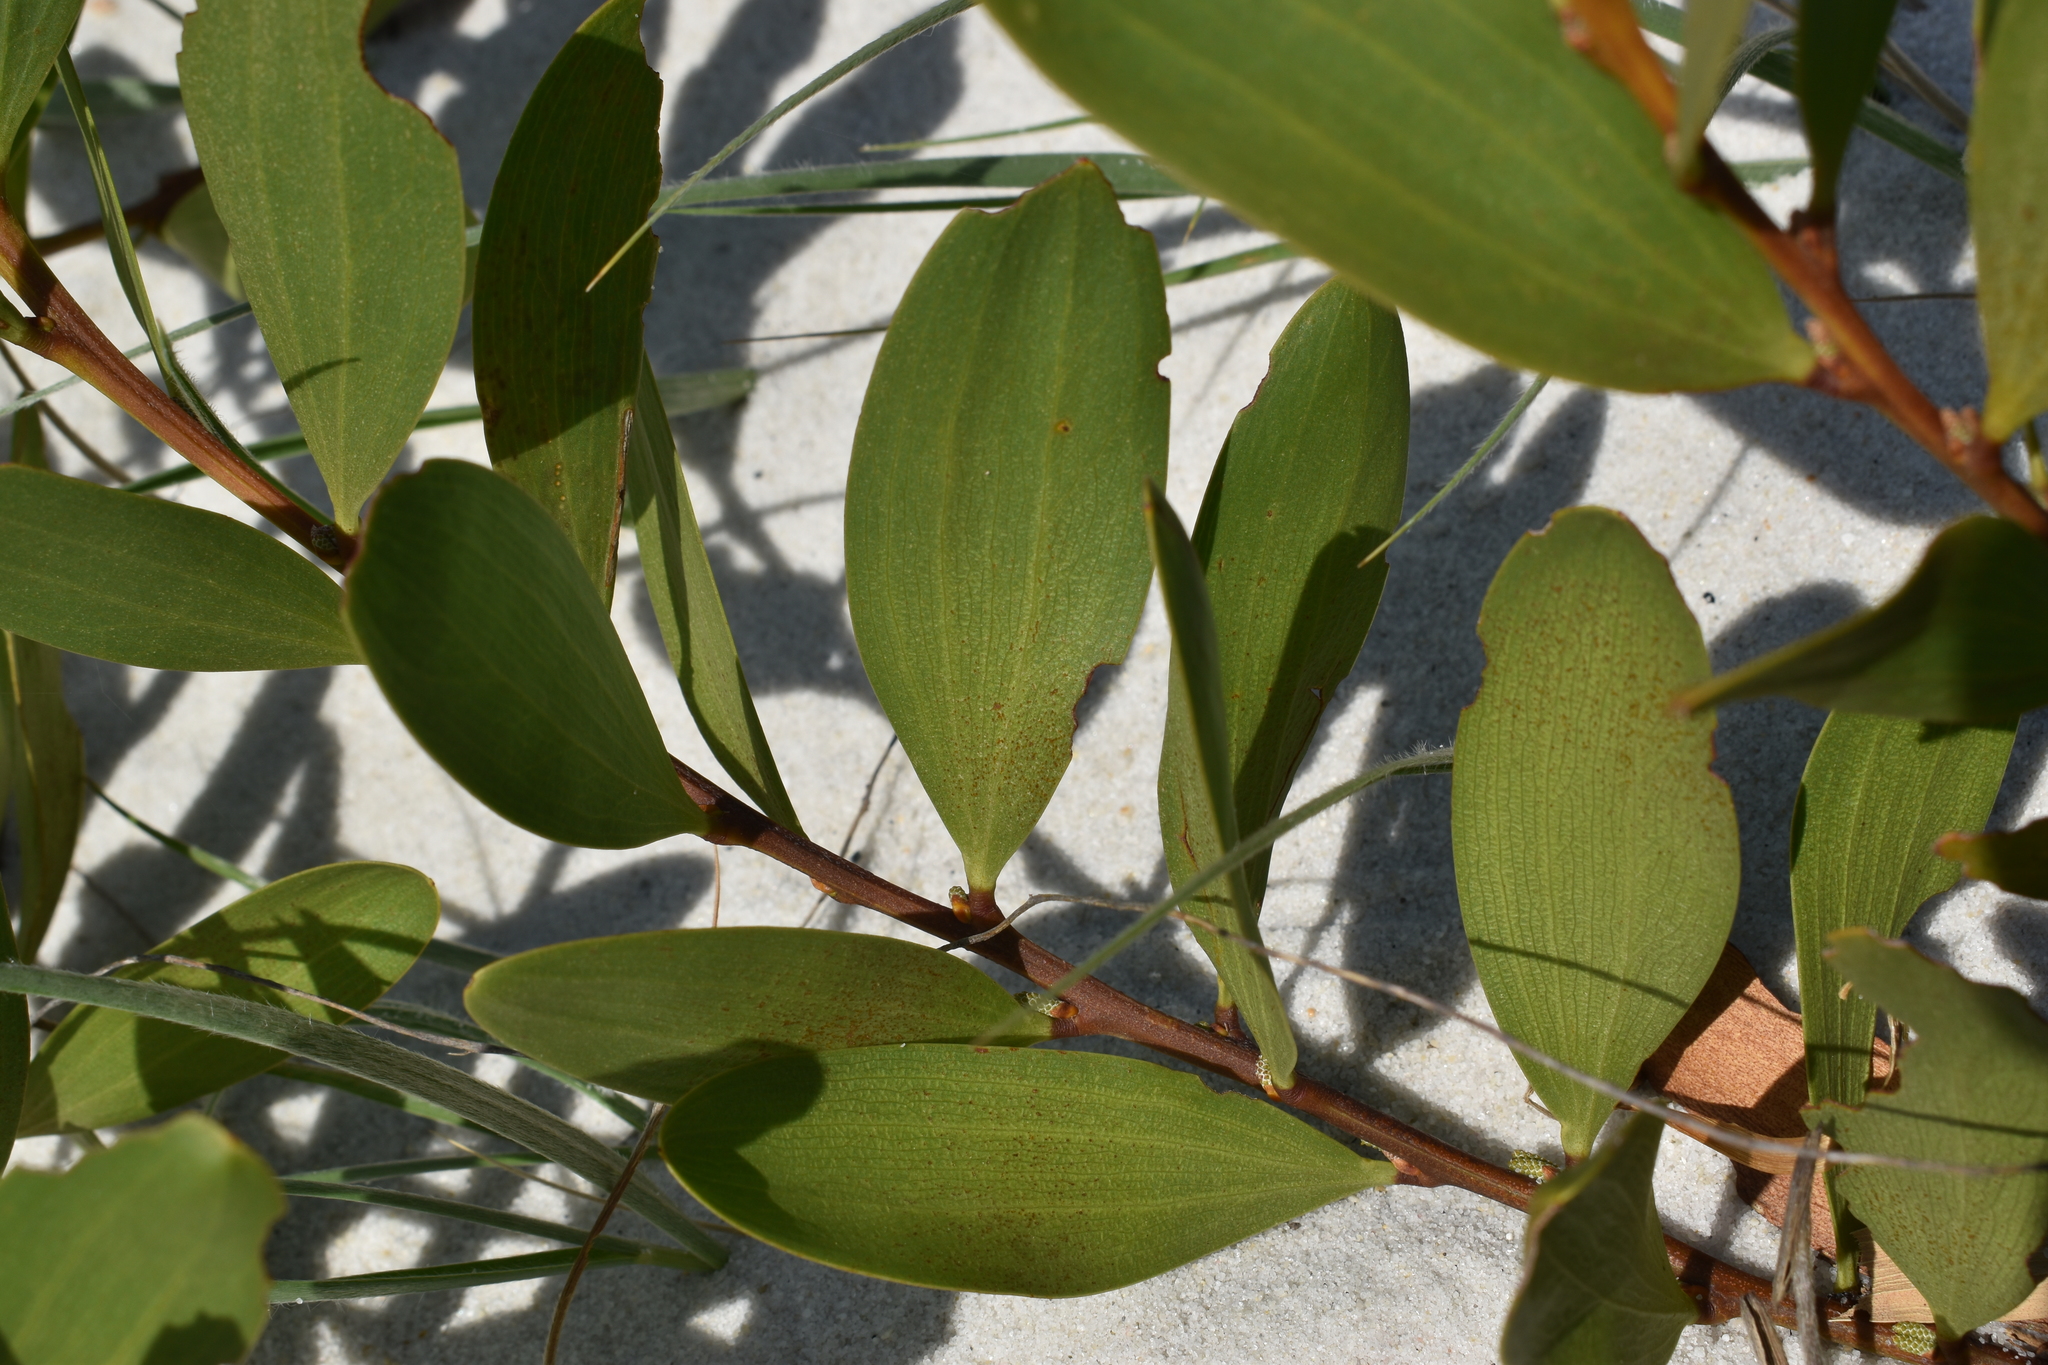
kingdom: Plantae
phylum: Tracheophyta
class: Magnoliopsida
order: Fabales
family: Fabaceae
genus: Acacia
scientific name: Acacia longifolia
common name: Sydney golden wattle
